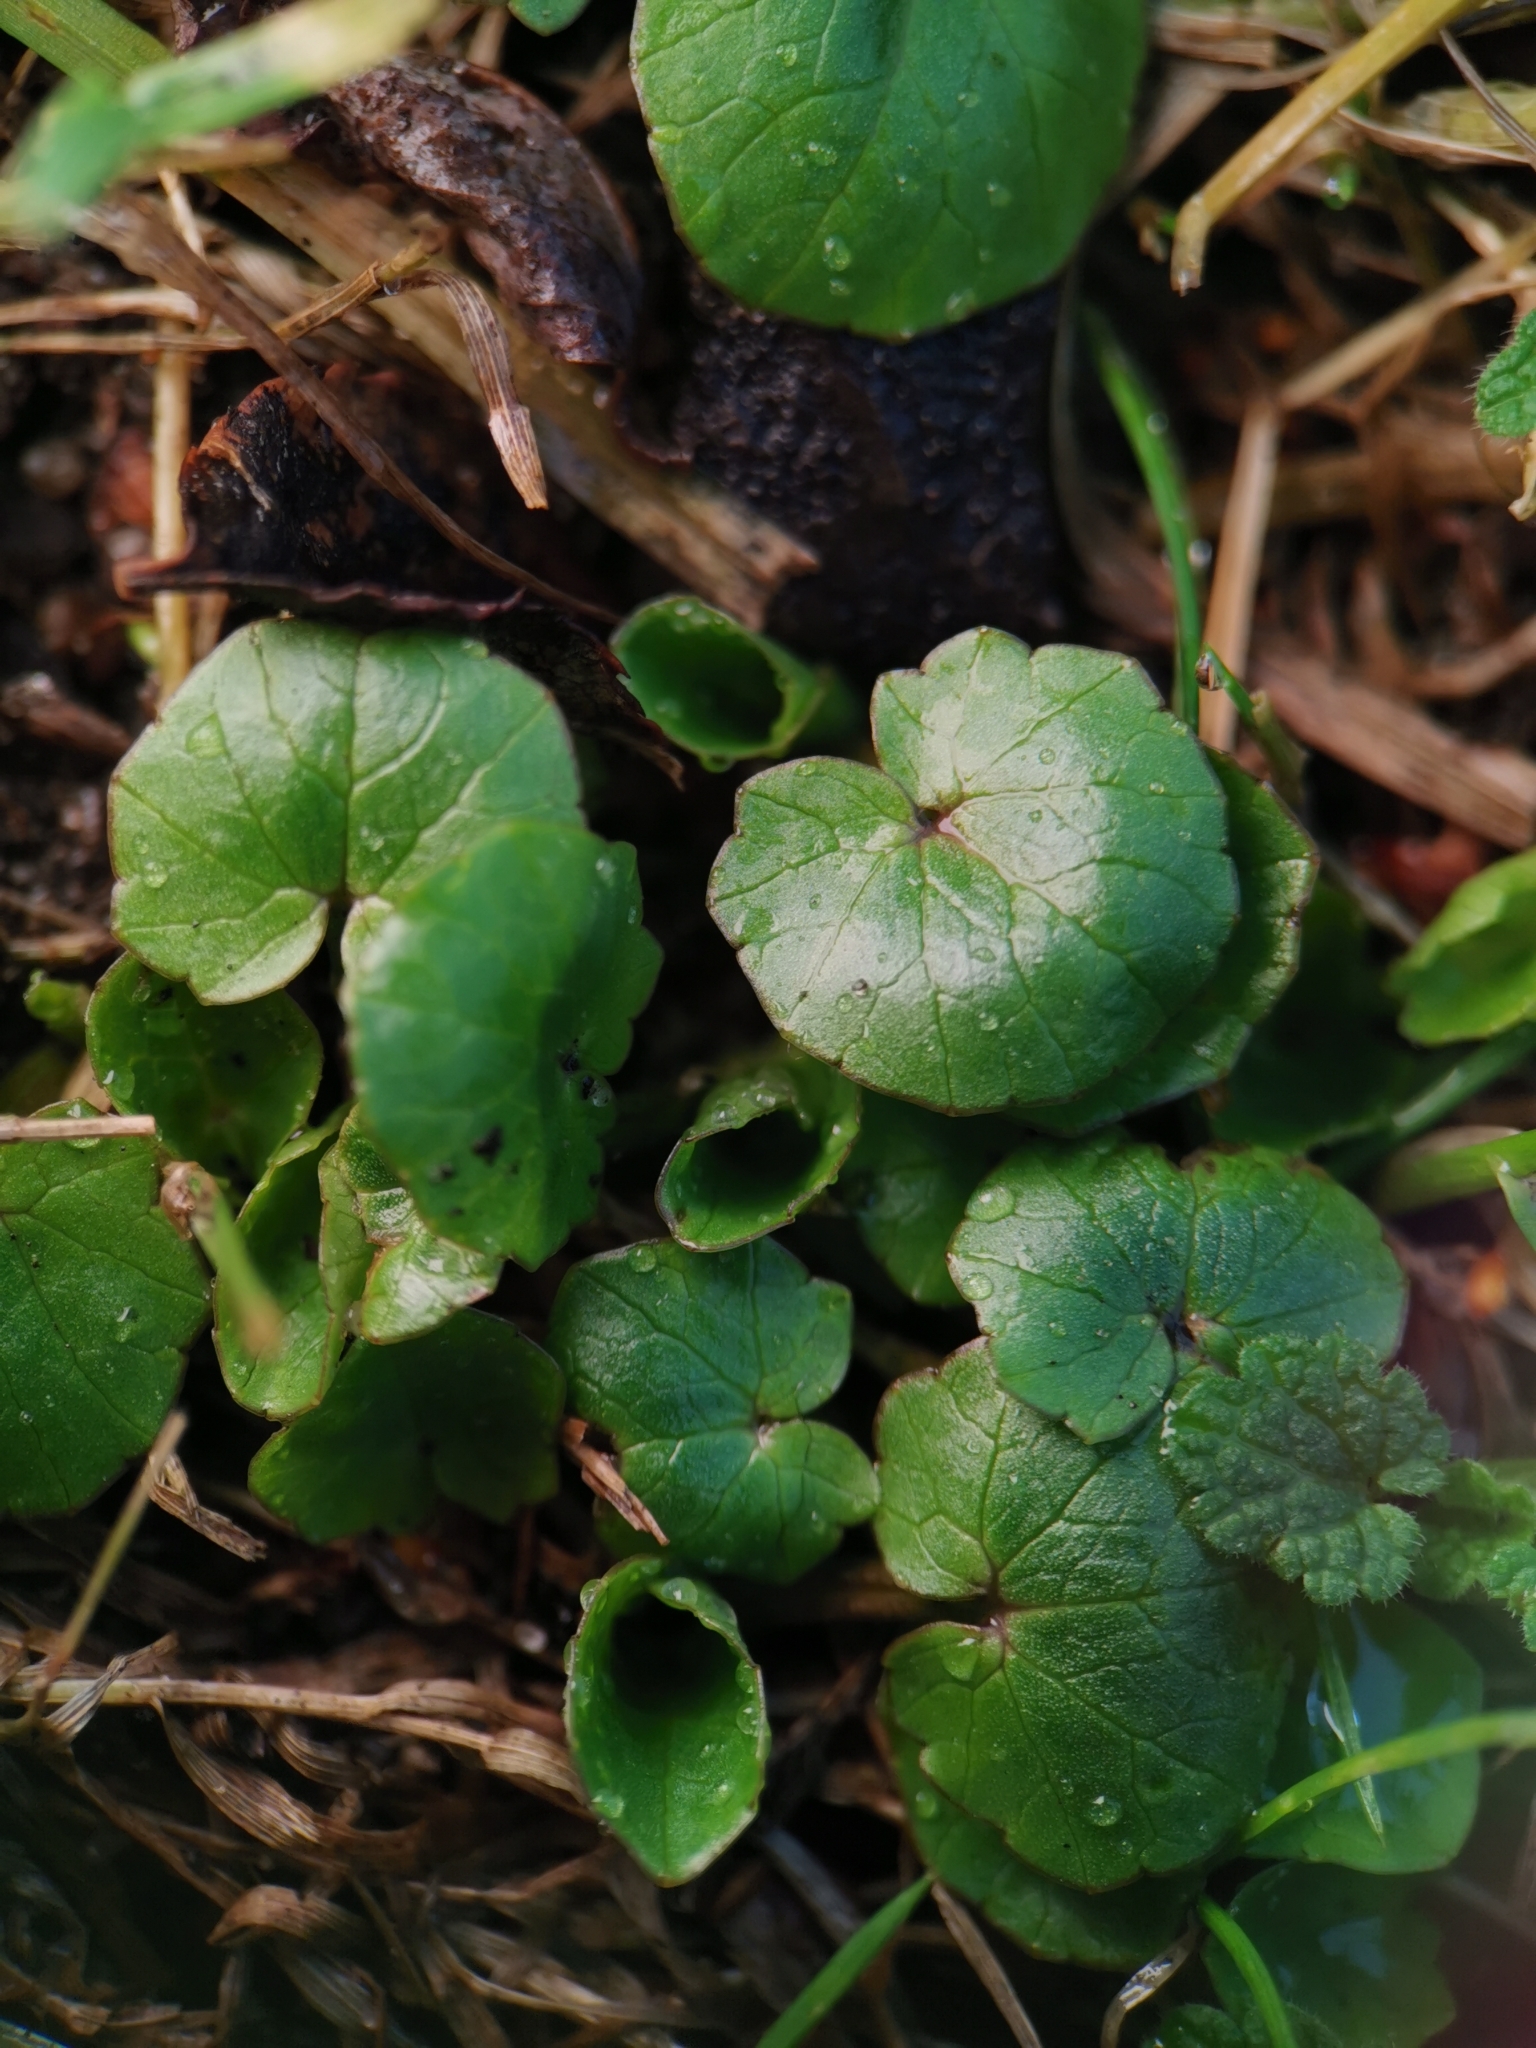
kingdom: Plantae
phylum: Tracheophyta
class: Magnoliopsida
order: Ranunculales
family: Ranunculaceae
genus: Ficaria
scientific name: Ficaria verna
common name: Lesser celandine
